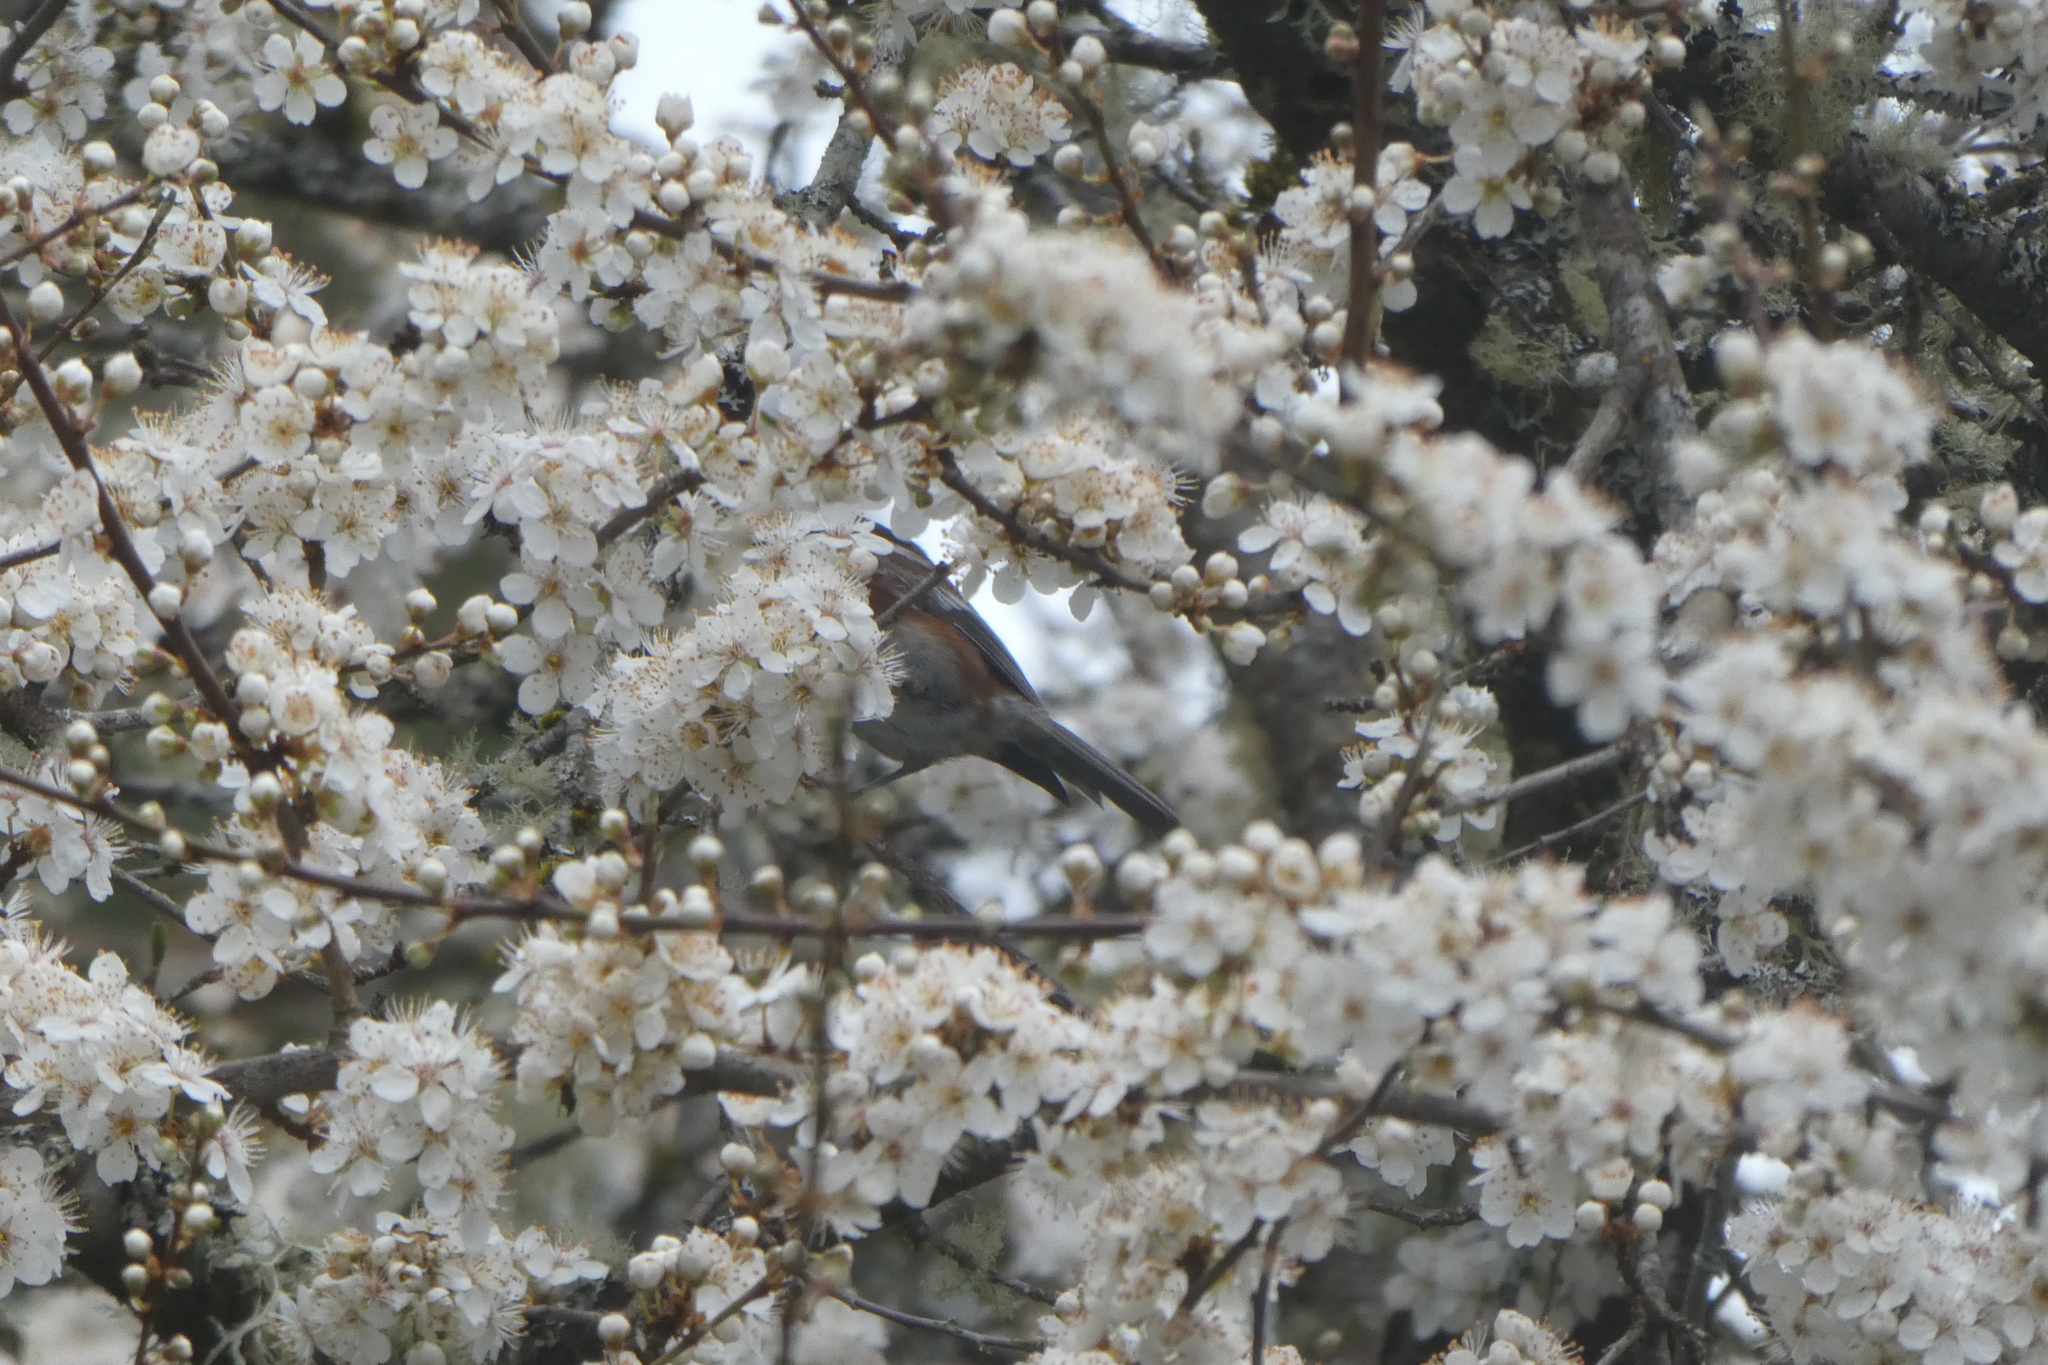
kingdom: Animalia
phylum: Chordata
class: Aves
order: Passeriformes
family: Paridae
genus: Poecile
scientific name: Poecile rufescens
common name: Chestnut-backed chickadee
